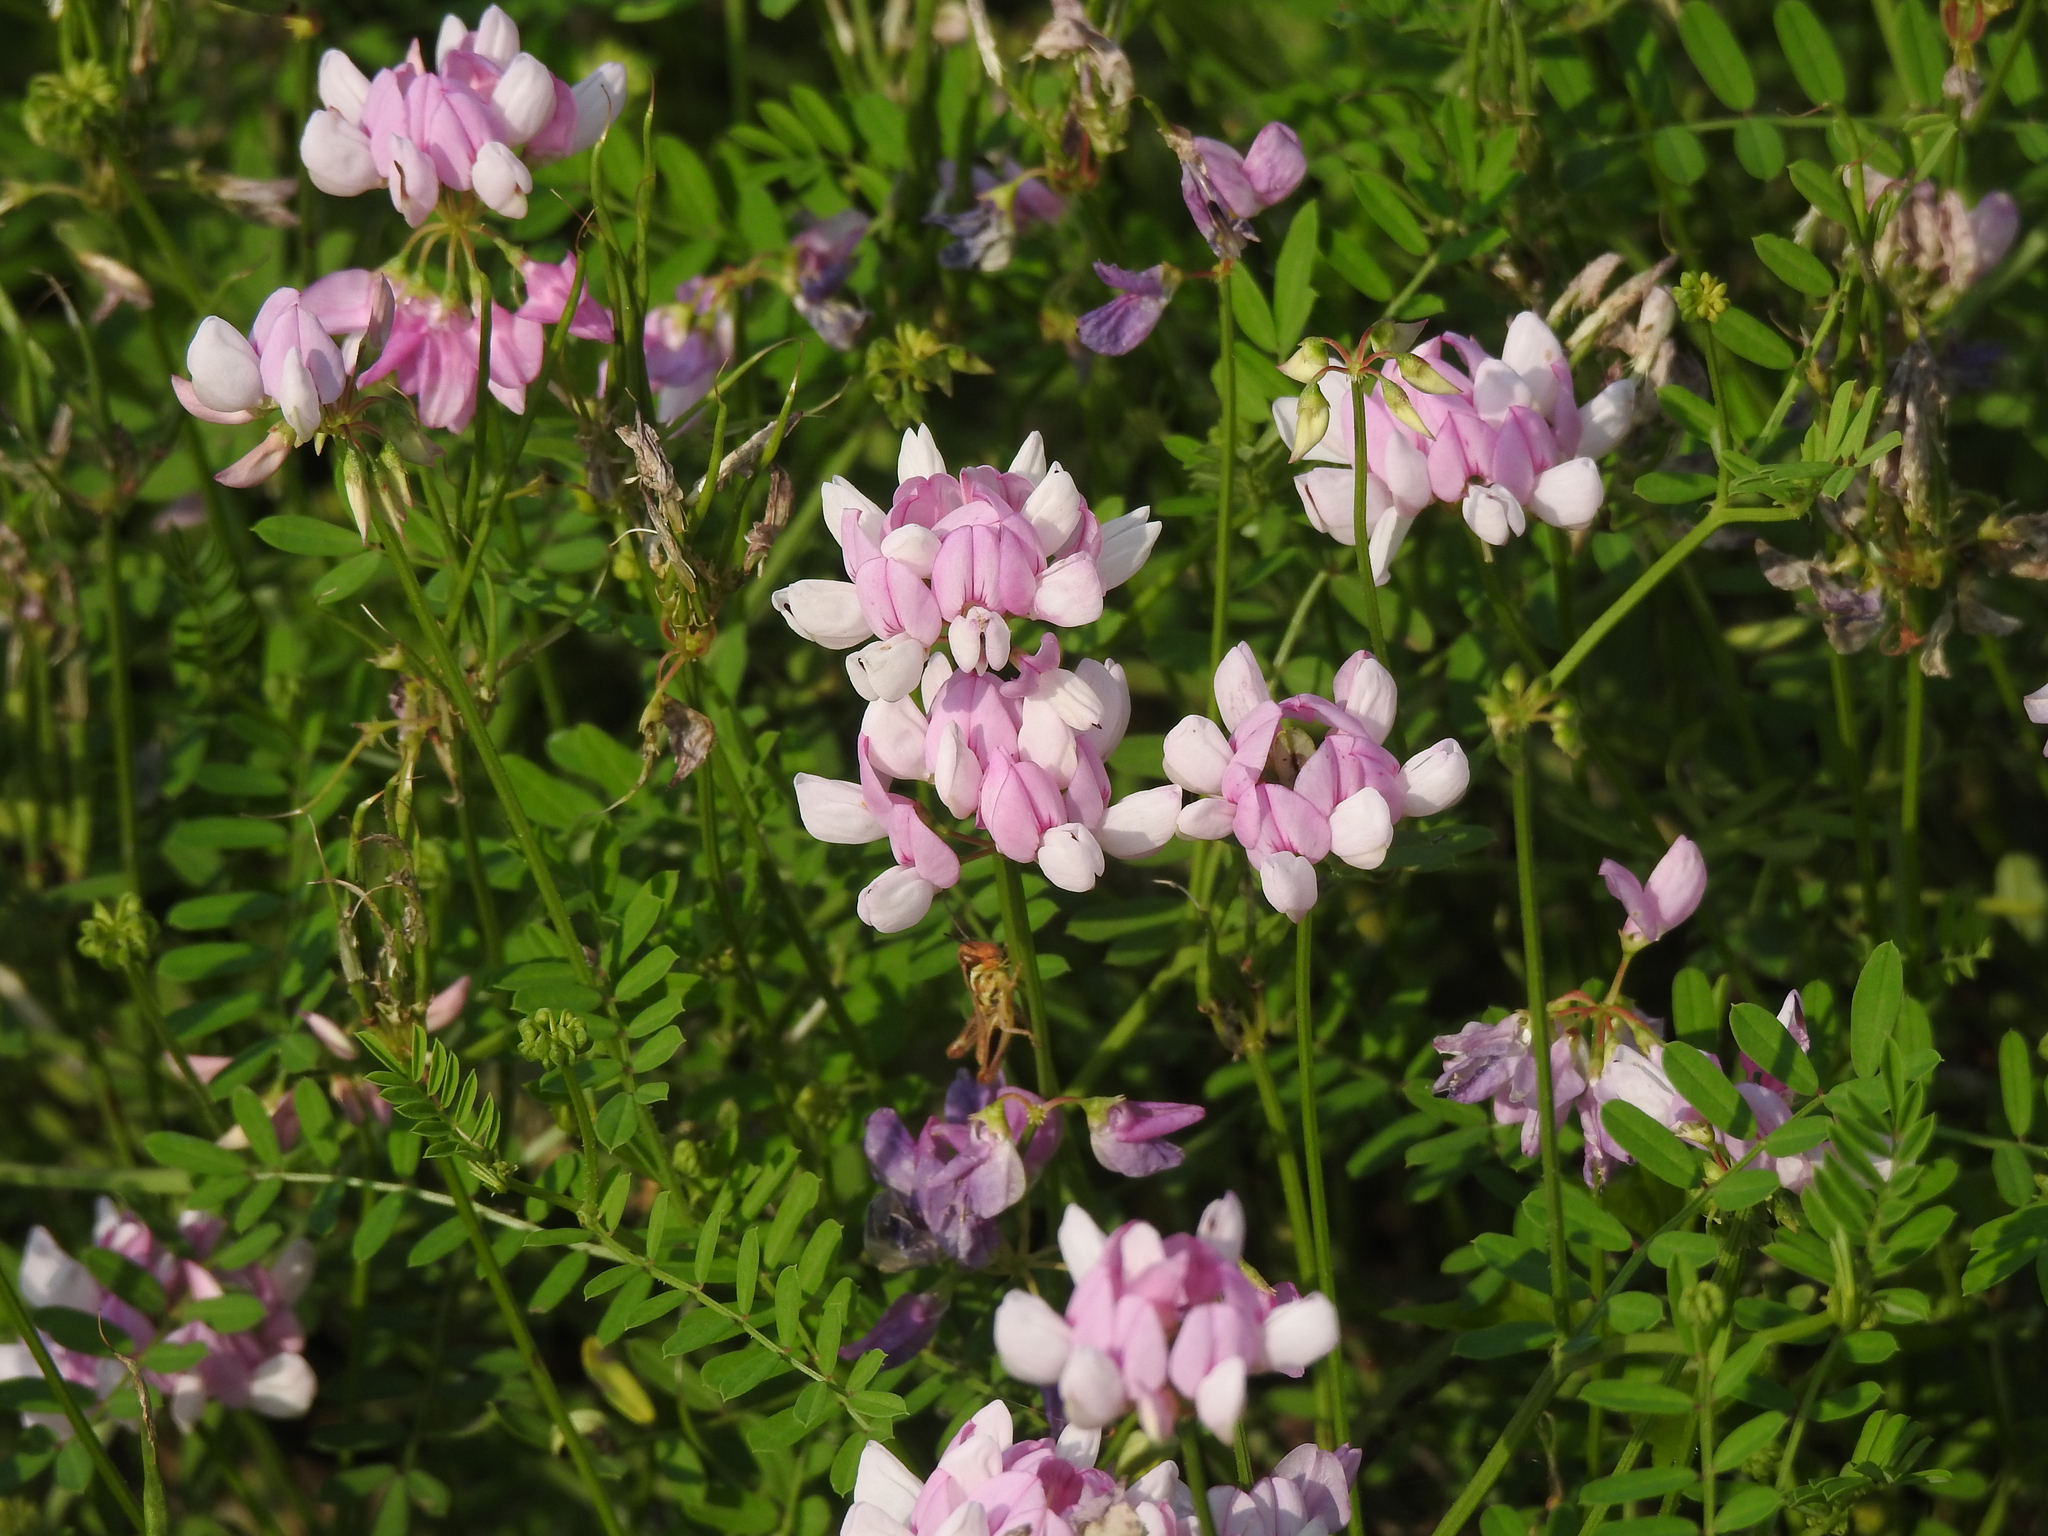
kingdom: Plantae
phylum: Tracheophyta
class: Magnoliopsida
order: Fabales
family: Fabaceae
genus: Coronilla
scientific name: Coronilla varia
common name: Crownvetch
